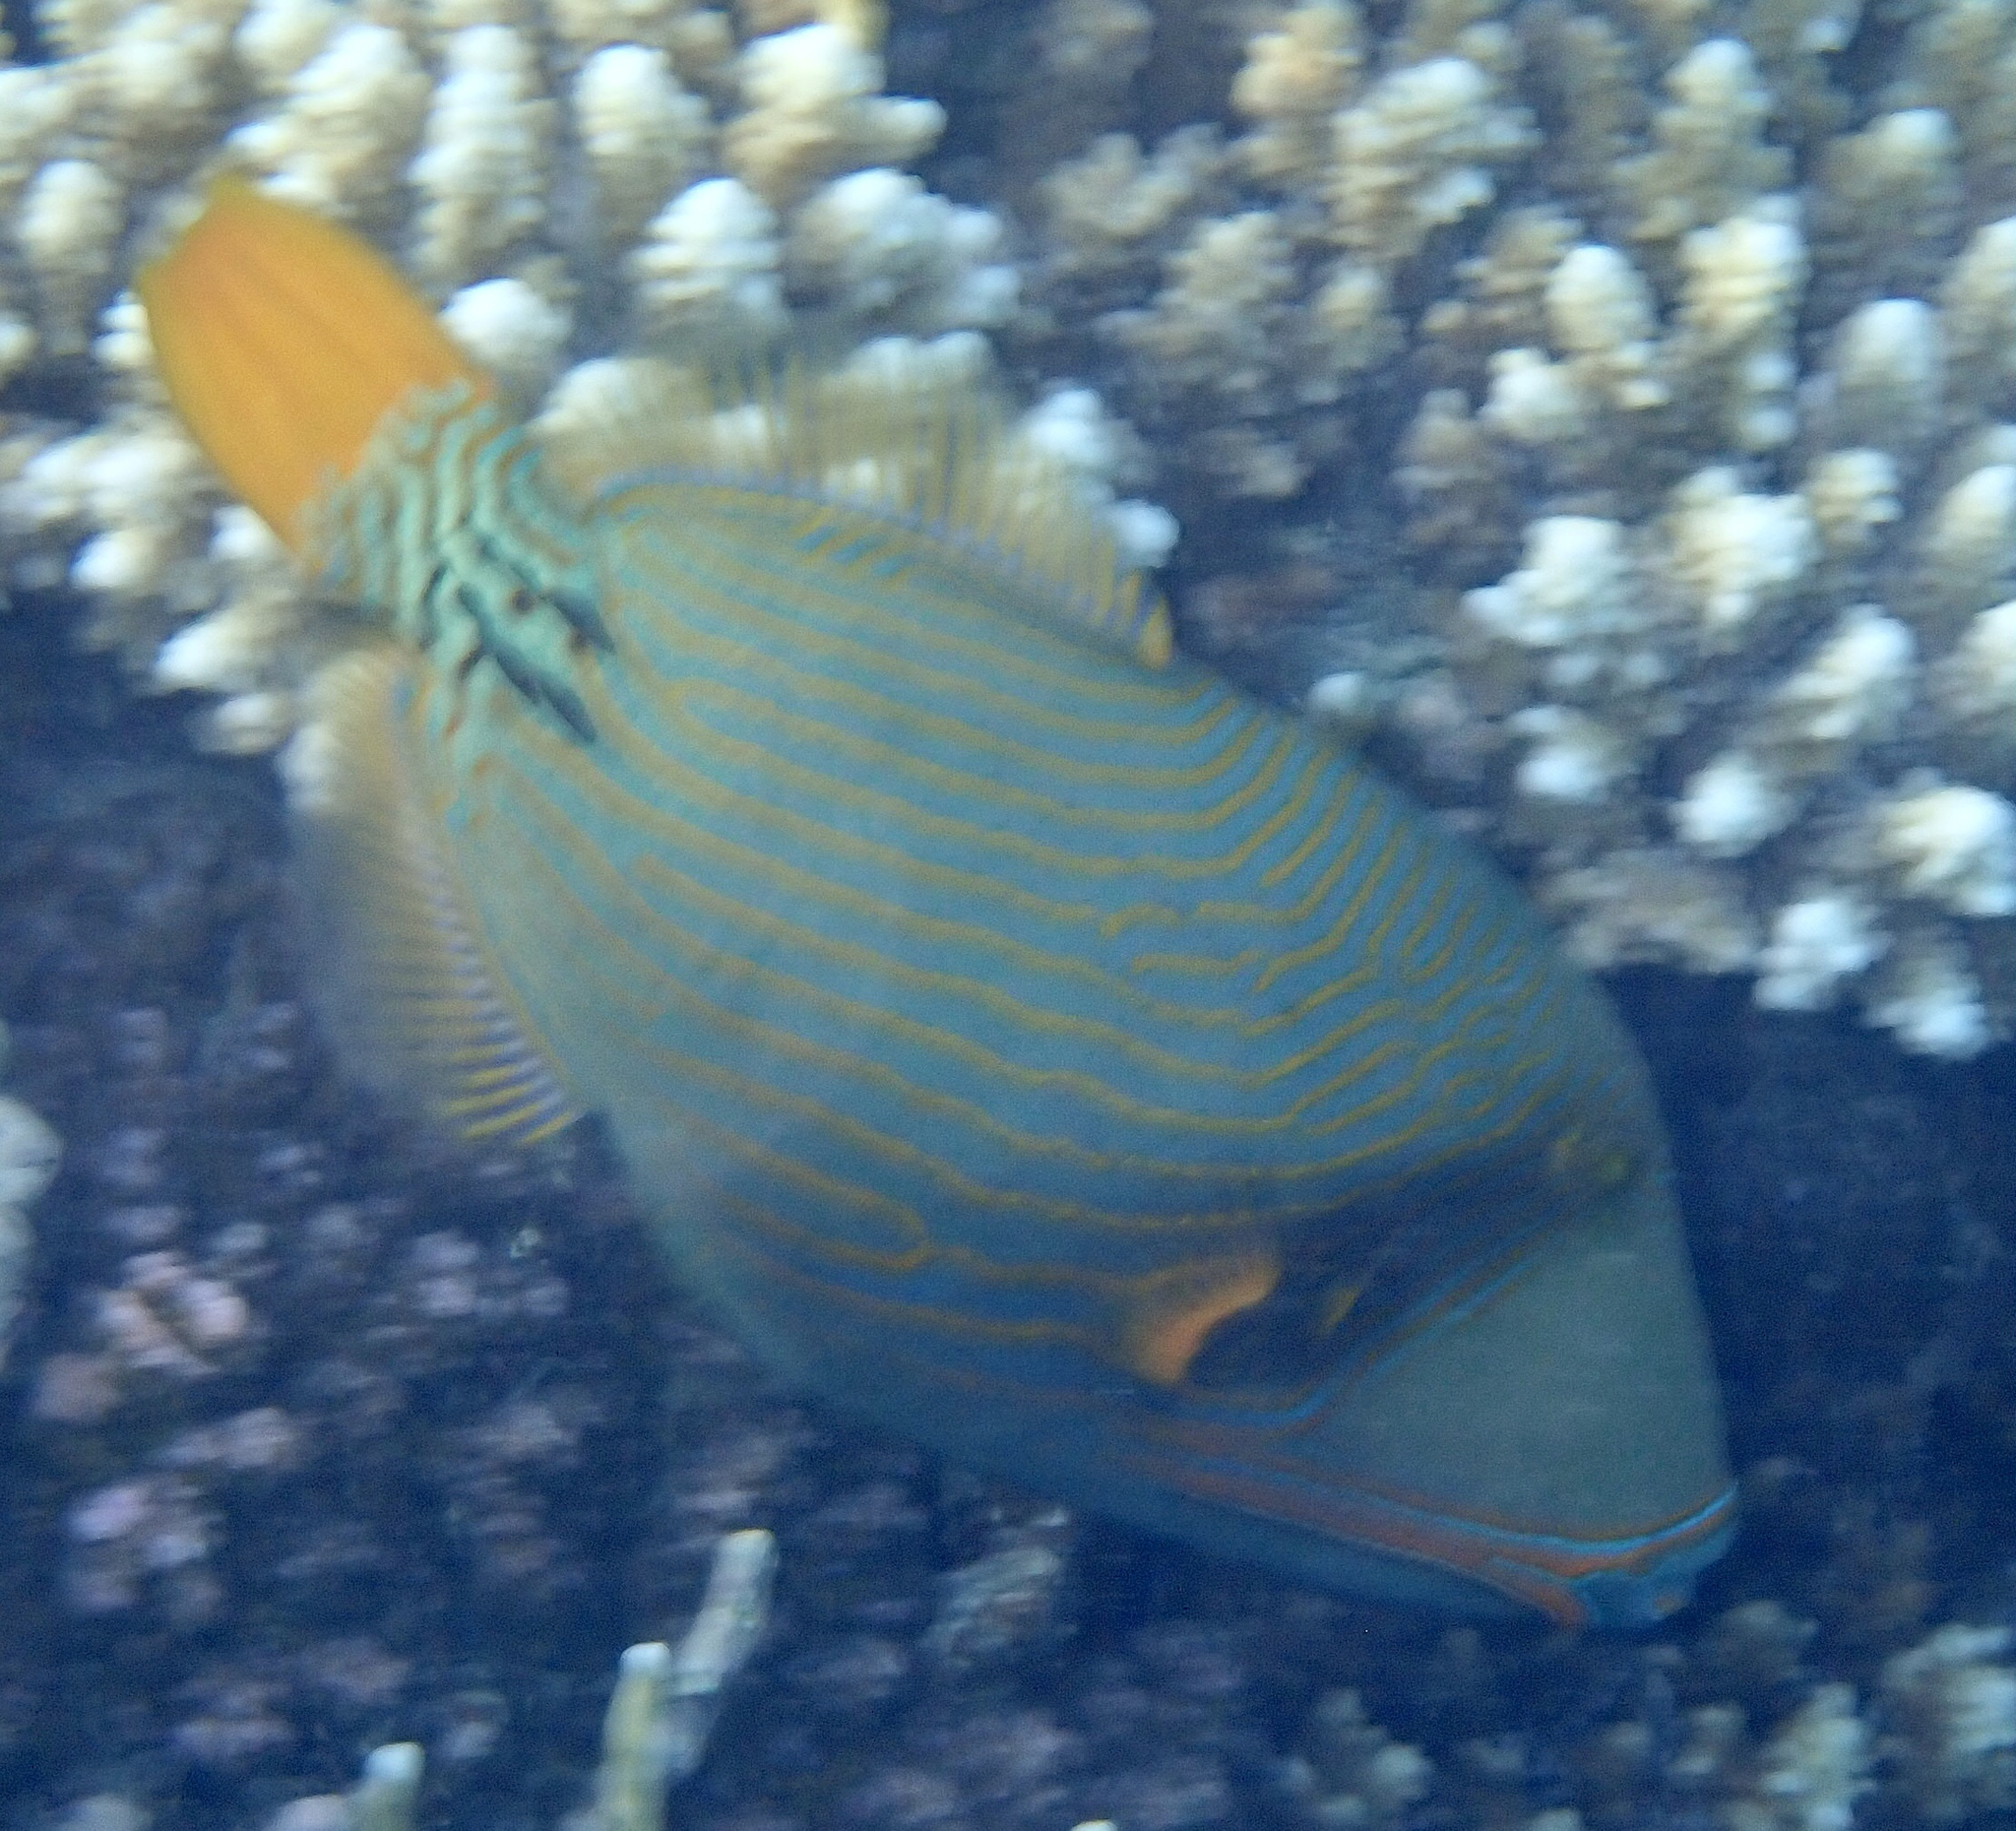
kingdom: Animalia
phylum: Chordata
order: Tetraodontiformes
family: Balistidae
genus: Balistapus
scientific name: Balistapus undulatus
